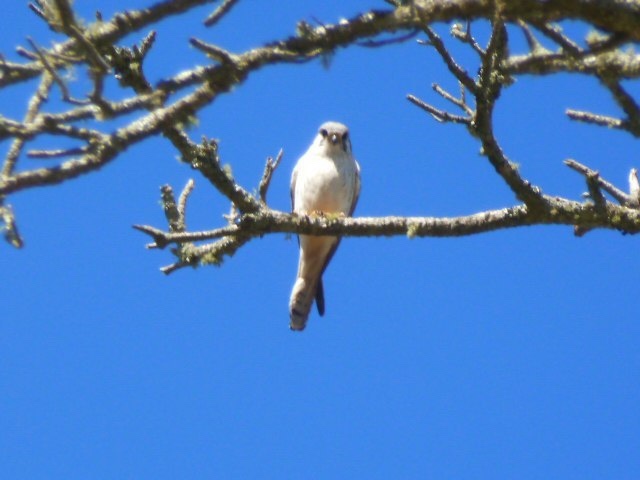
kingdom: Animalia
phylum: Chordata
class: Aves
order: Falconiformes
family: Falconidae
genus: Falco
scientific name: Falco sparverius
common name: American kestrel
